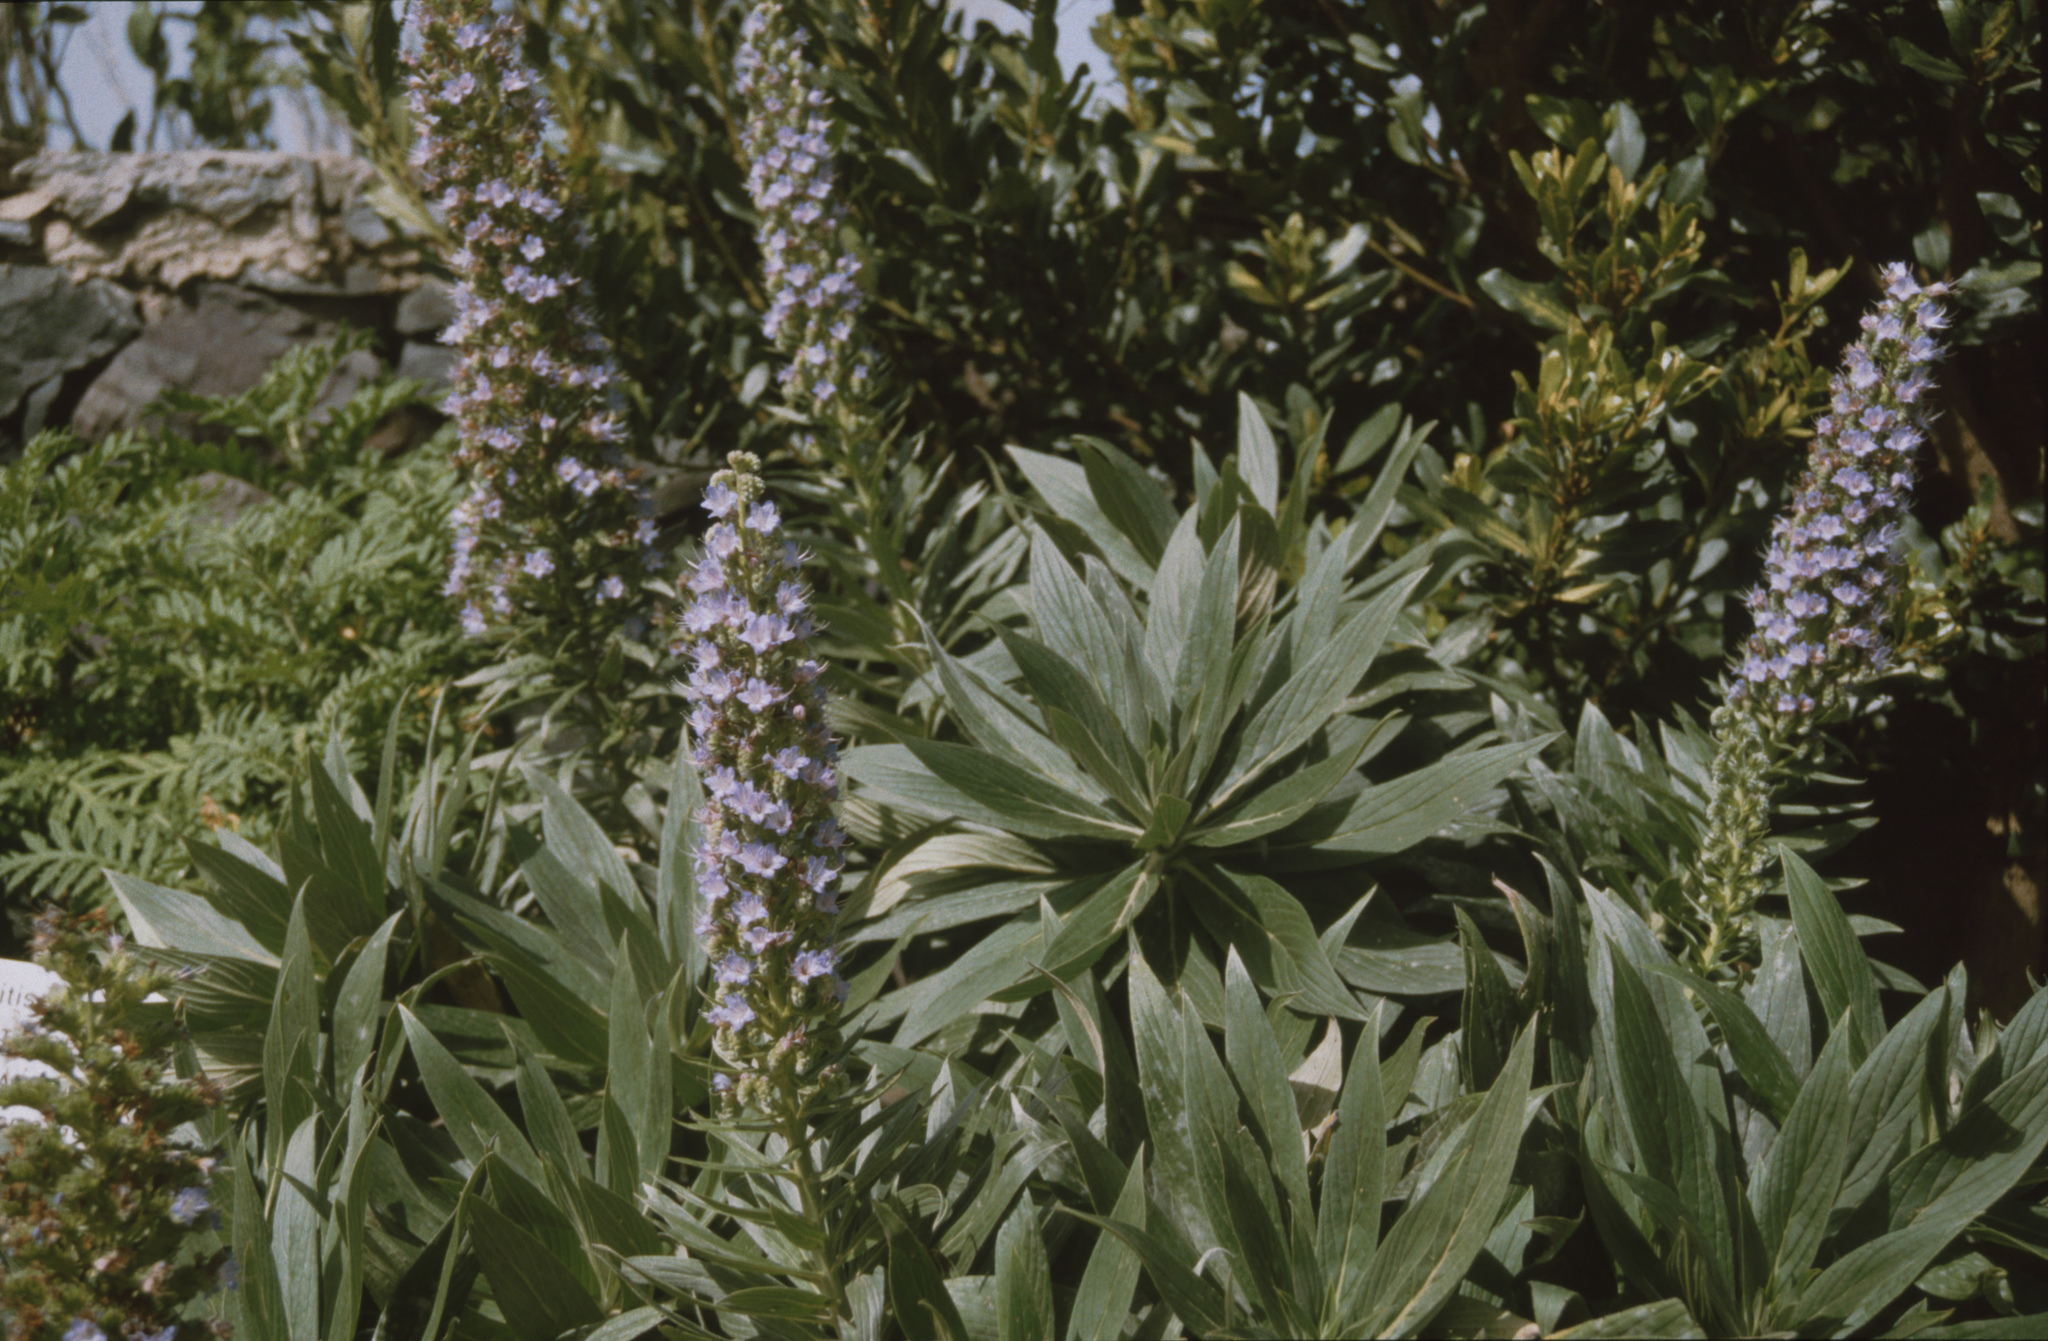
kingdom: Plantae
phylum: Tracheophyta
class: Magnoliopsida
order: Boraginales
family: Boraginaceae
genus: Echium
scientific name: Echium acanthocarpum
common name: Blue bugloss
